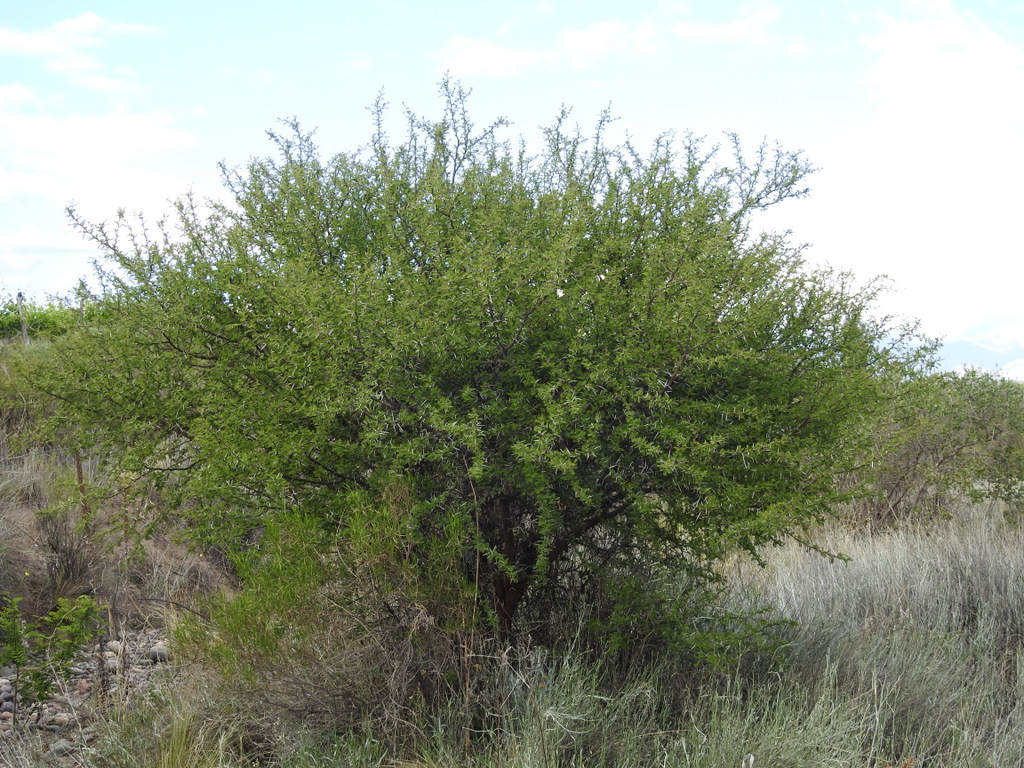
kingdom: Plantae
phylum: Tracheophyta
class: Magnoliopsida
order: Fabales
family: Fabaceae
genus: Vachellia
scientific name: Vachellia caven
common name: Roman cassie
